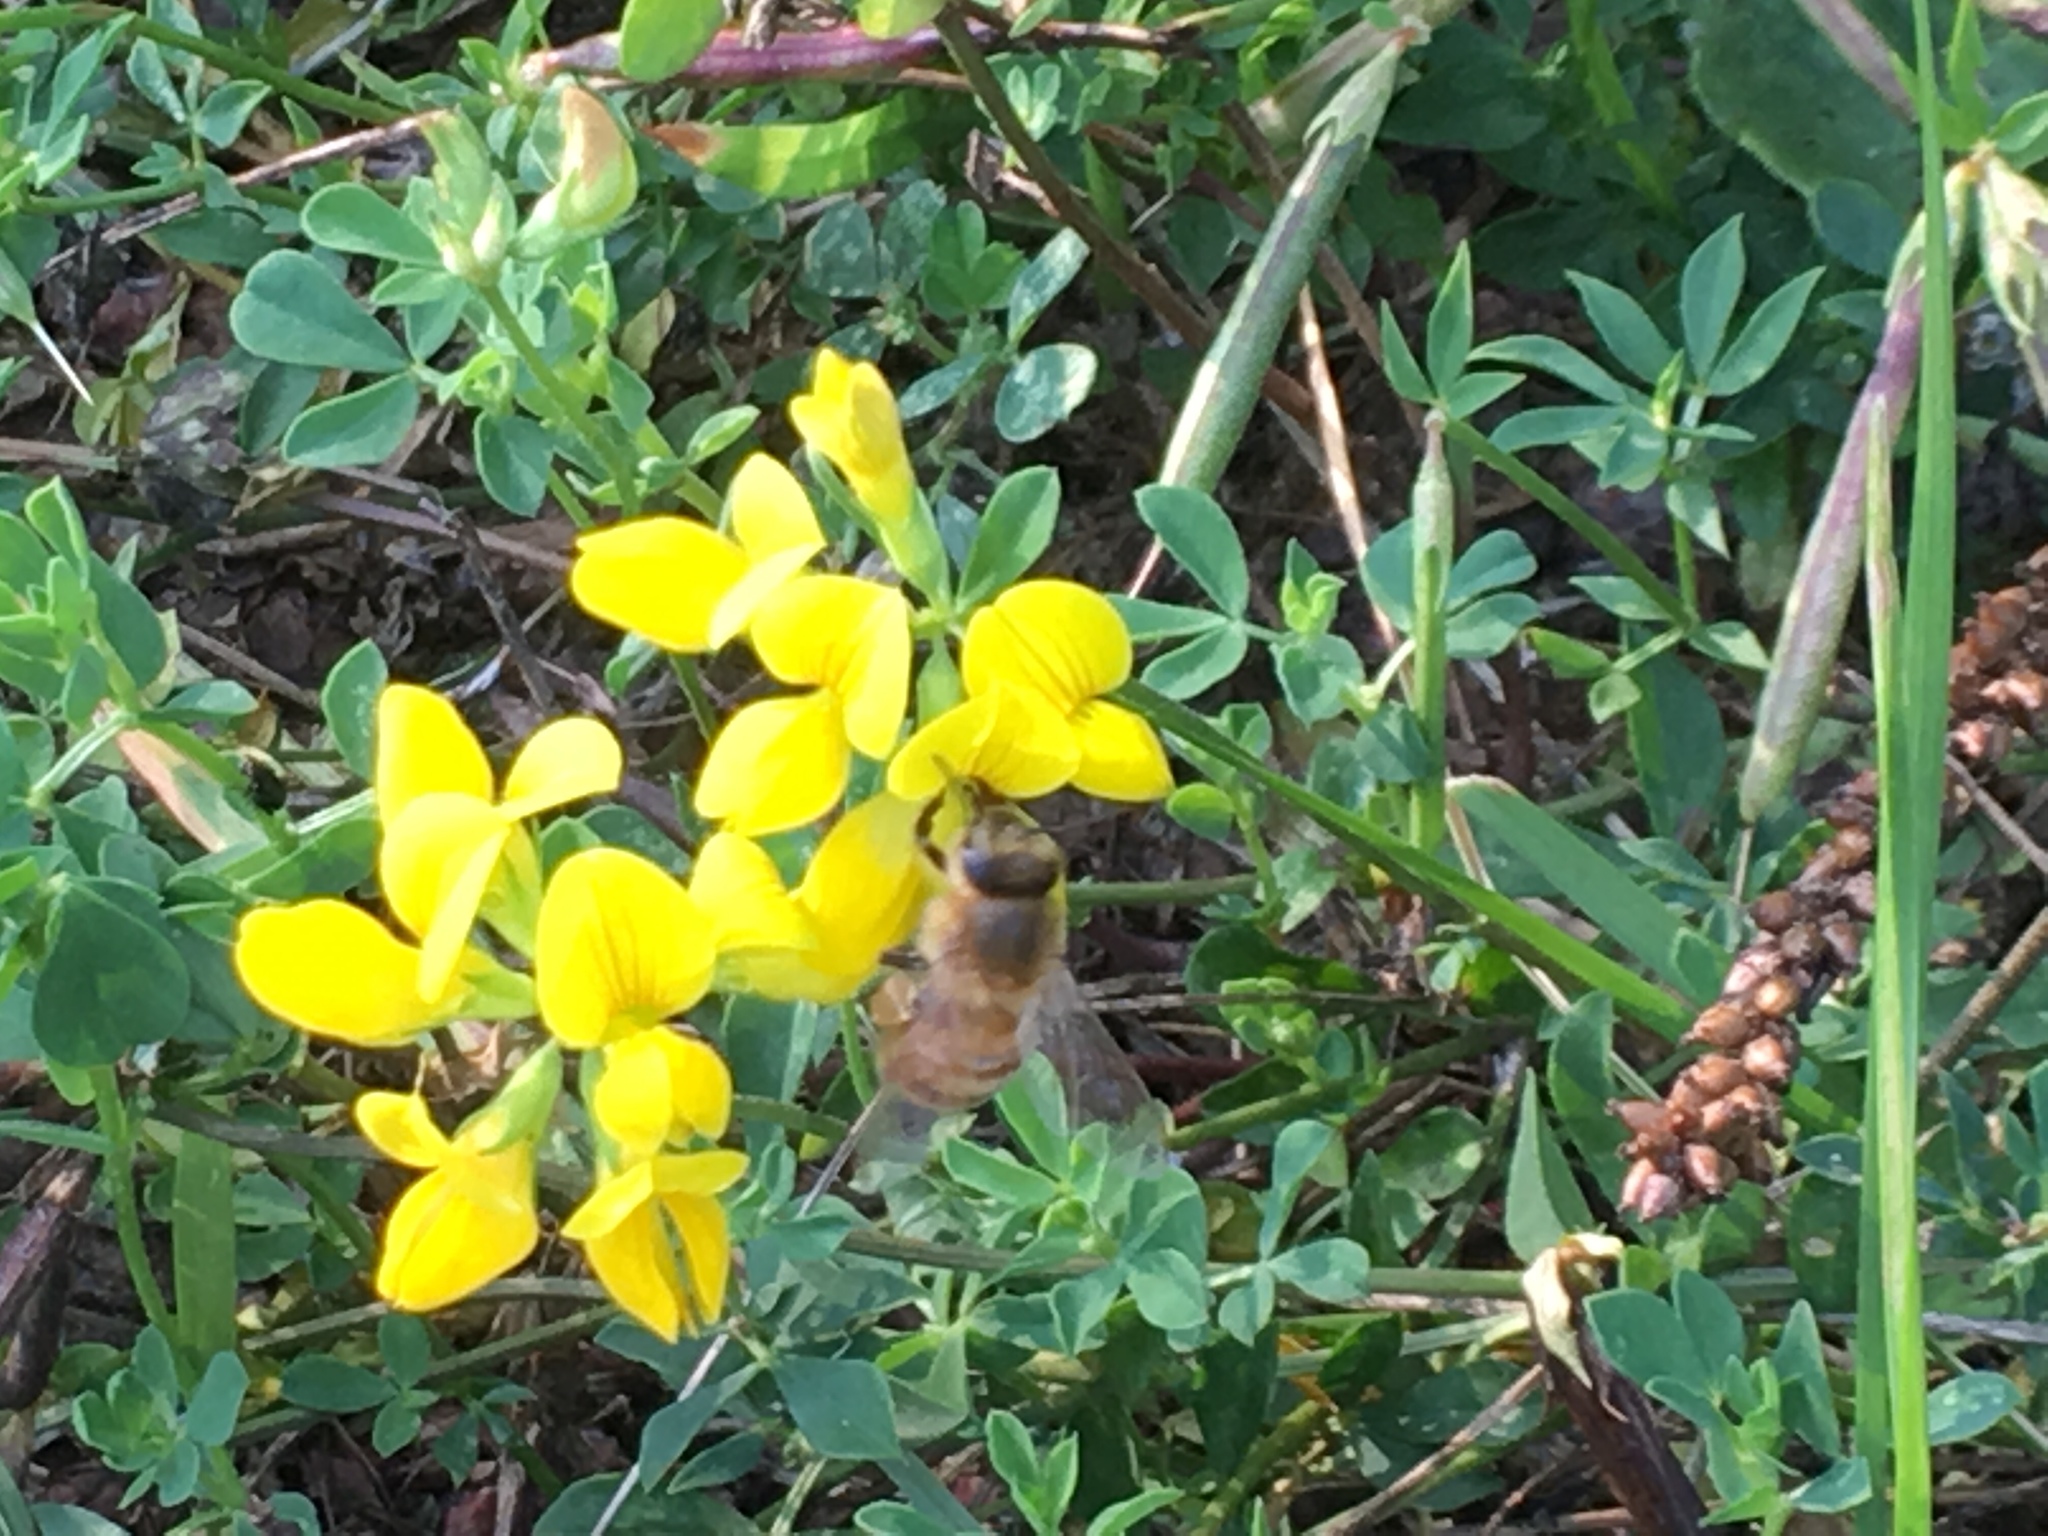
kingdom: Animalia
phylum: Arthropoda
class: Insecta
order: Hymenoptera
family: Apidae
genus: Apis
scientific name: Apis mellifera
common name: Honey bee
